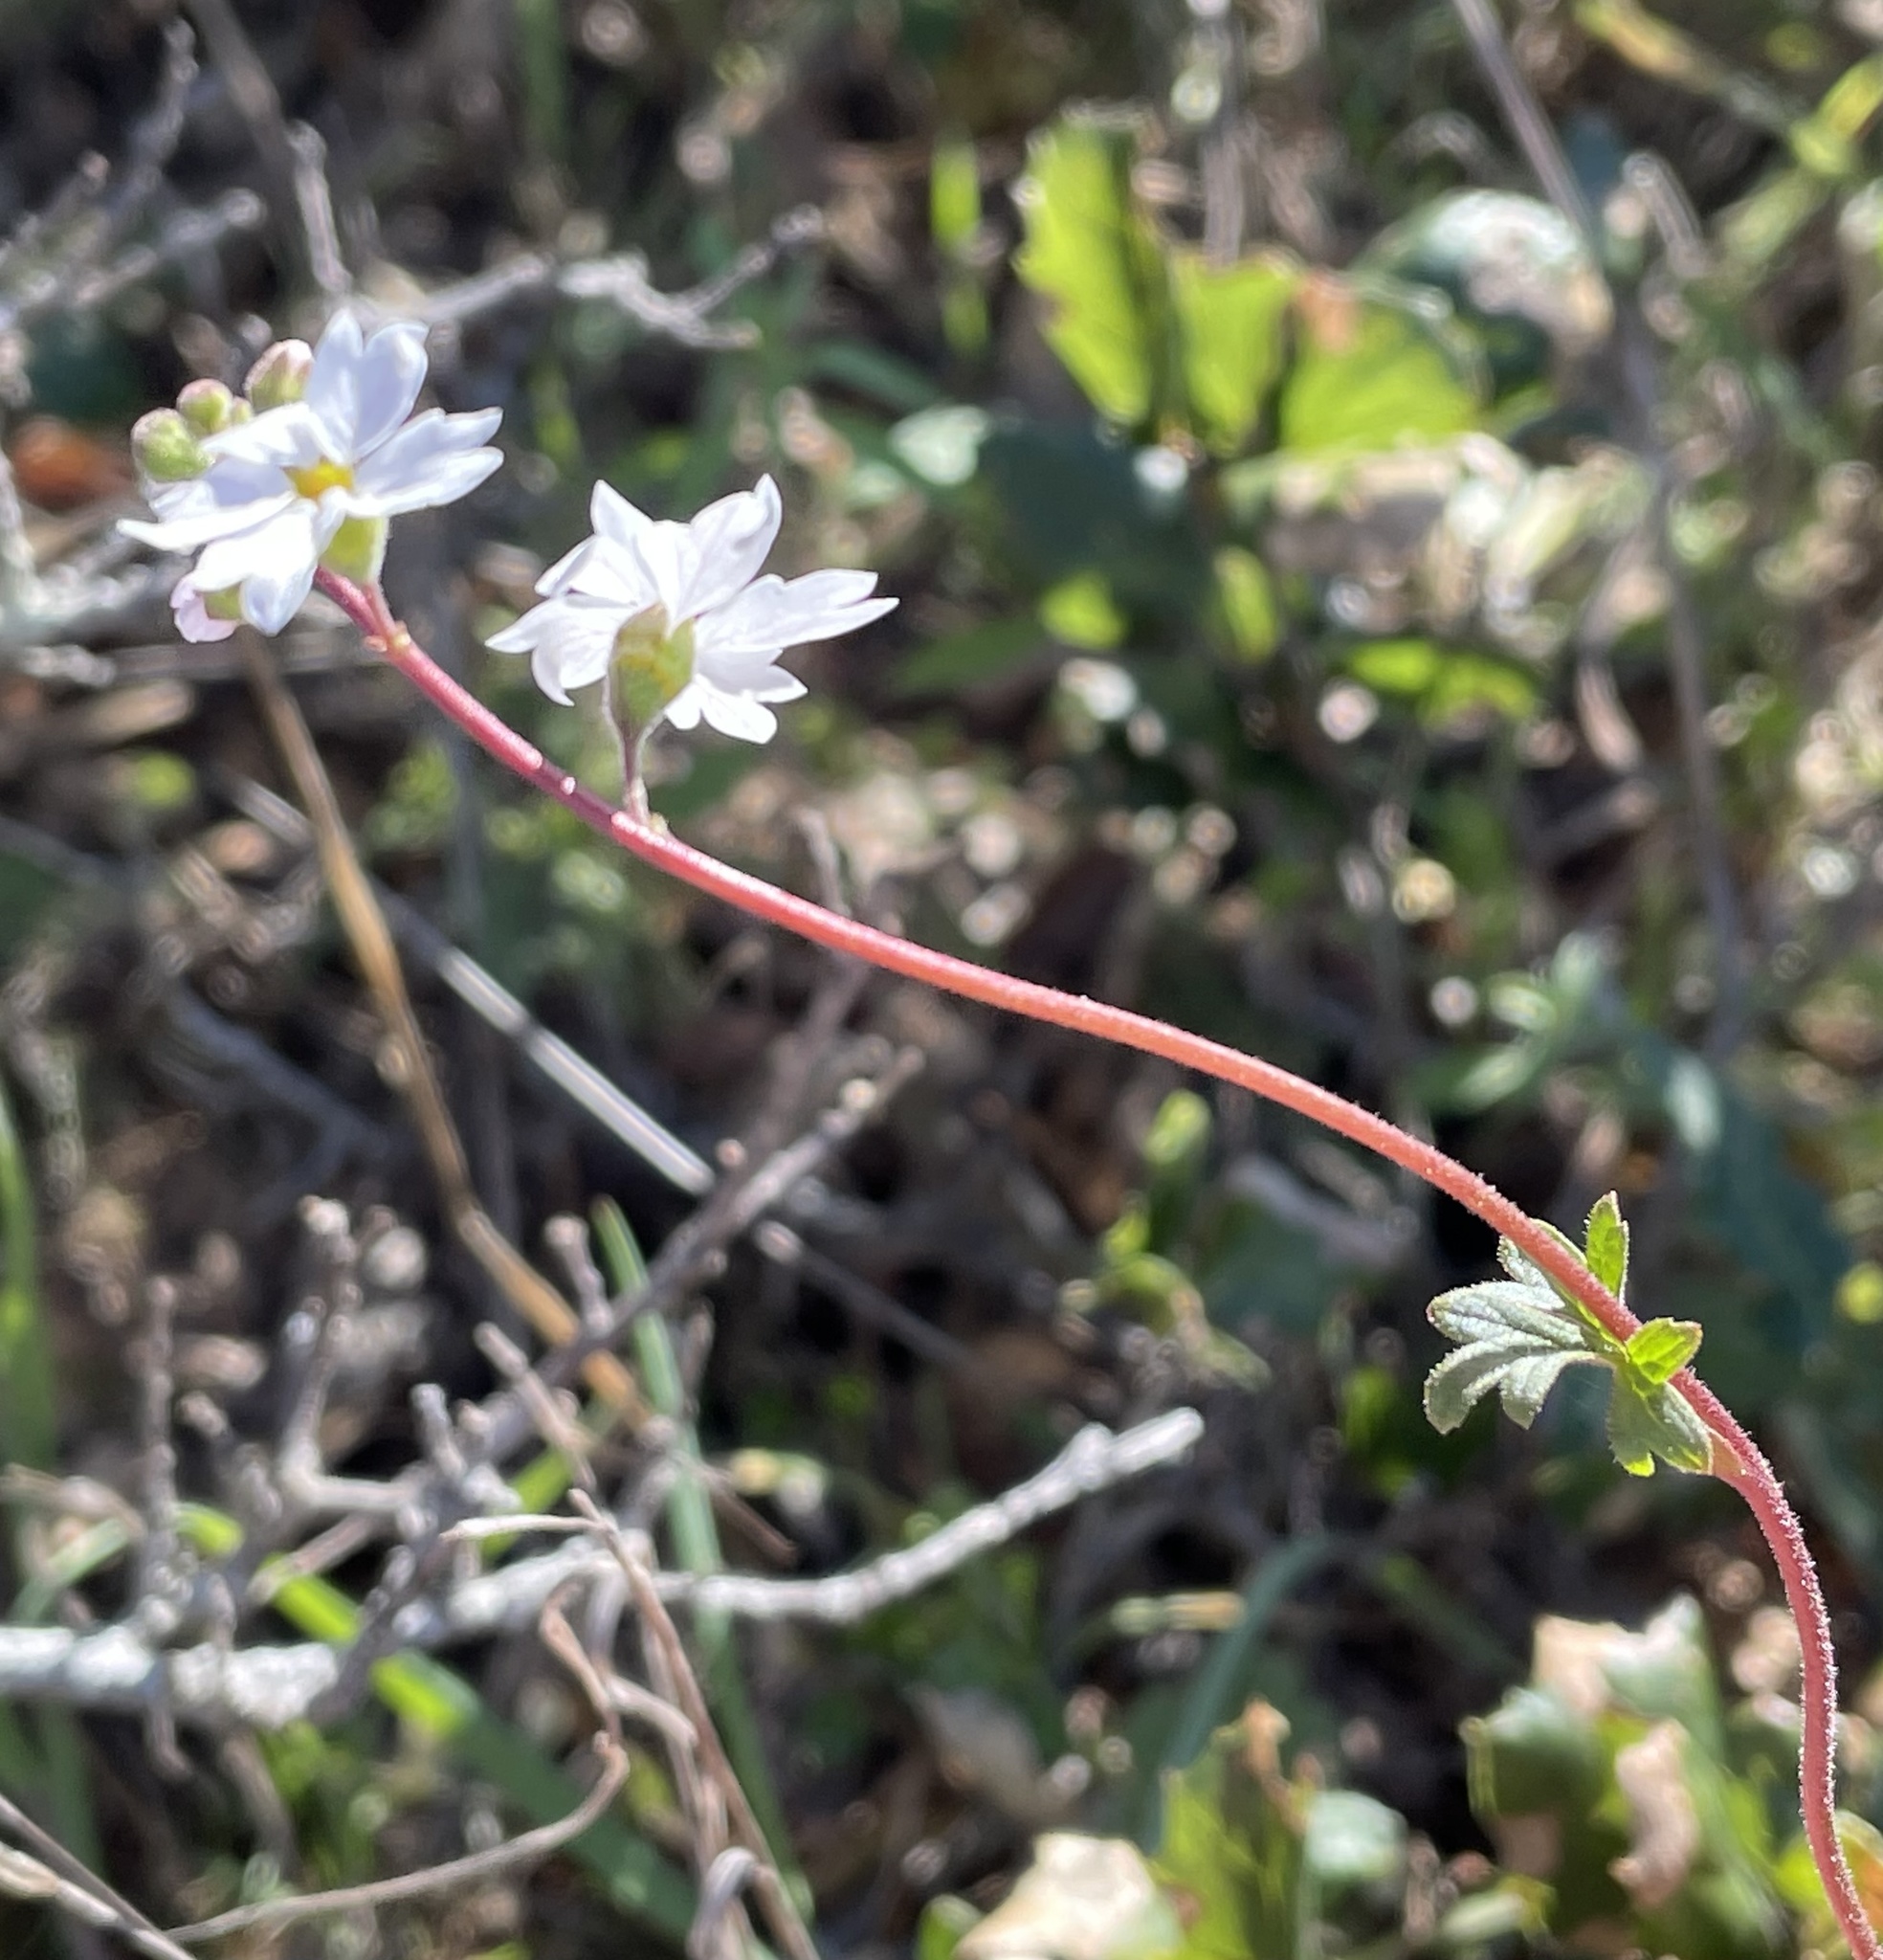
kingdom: Plantae
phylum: Tracheophyta
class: Magnoliopsida
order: Saxifragales
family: Saxifragaceae
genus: Lithophragma
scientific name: Lithophragma affine
